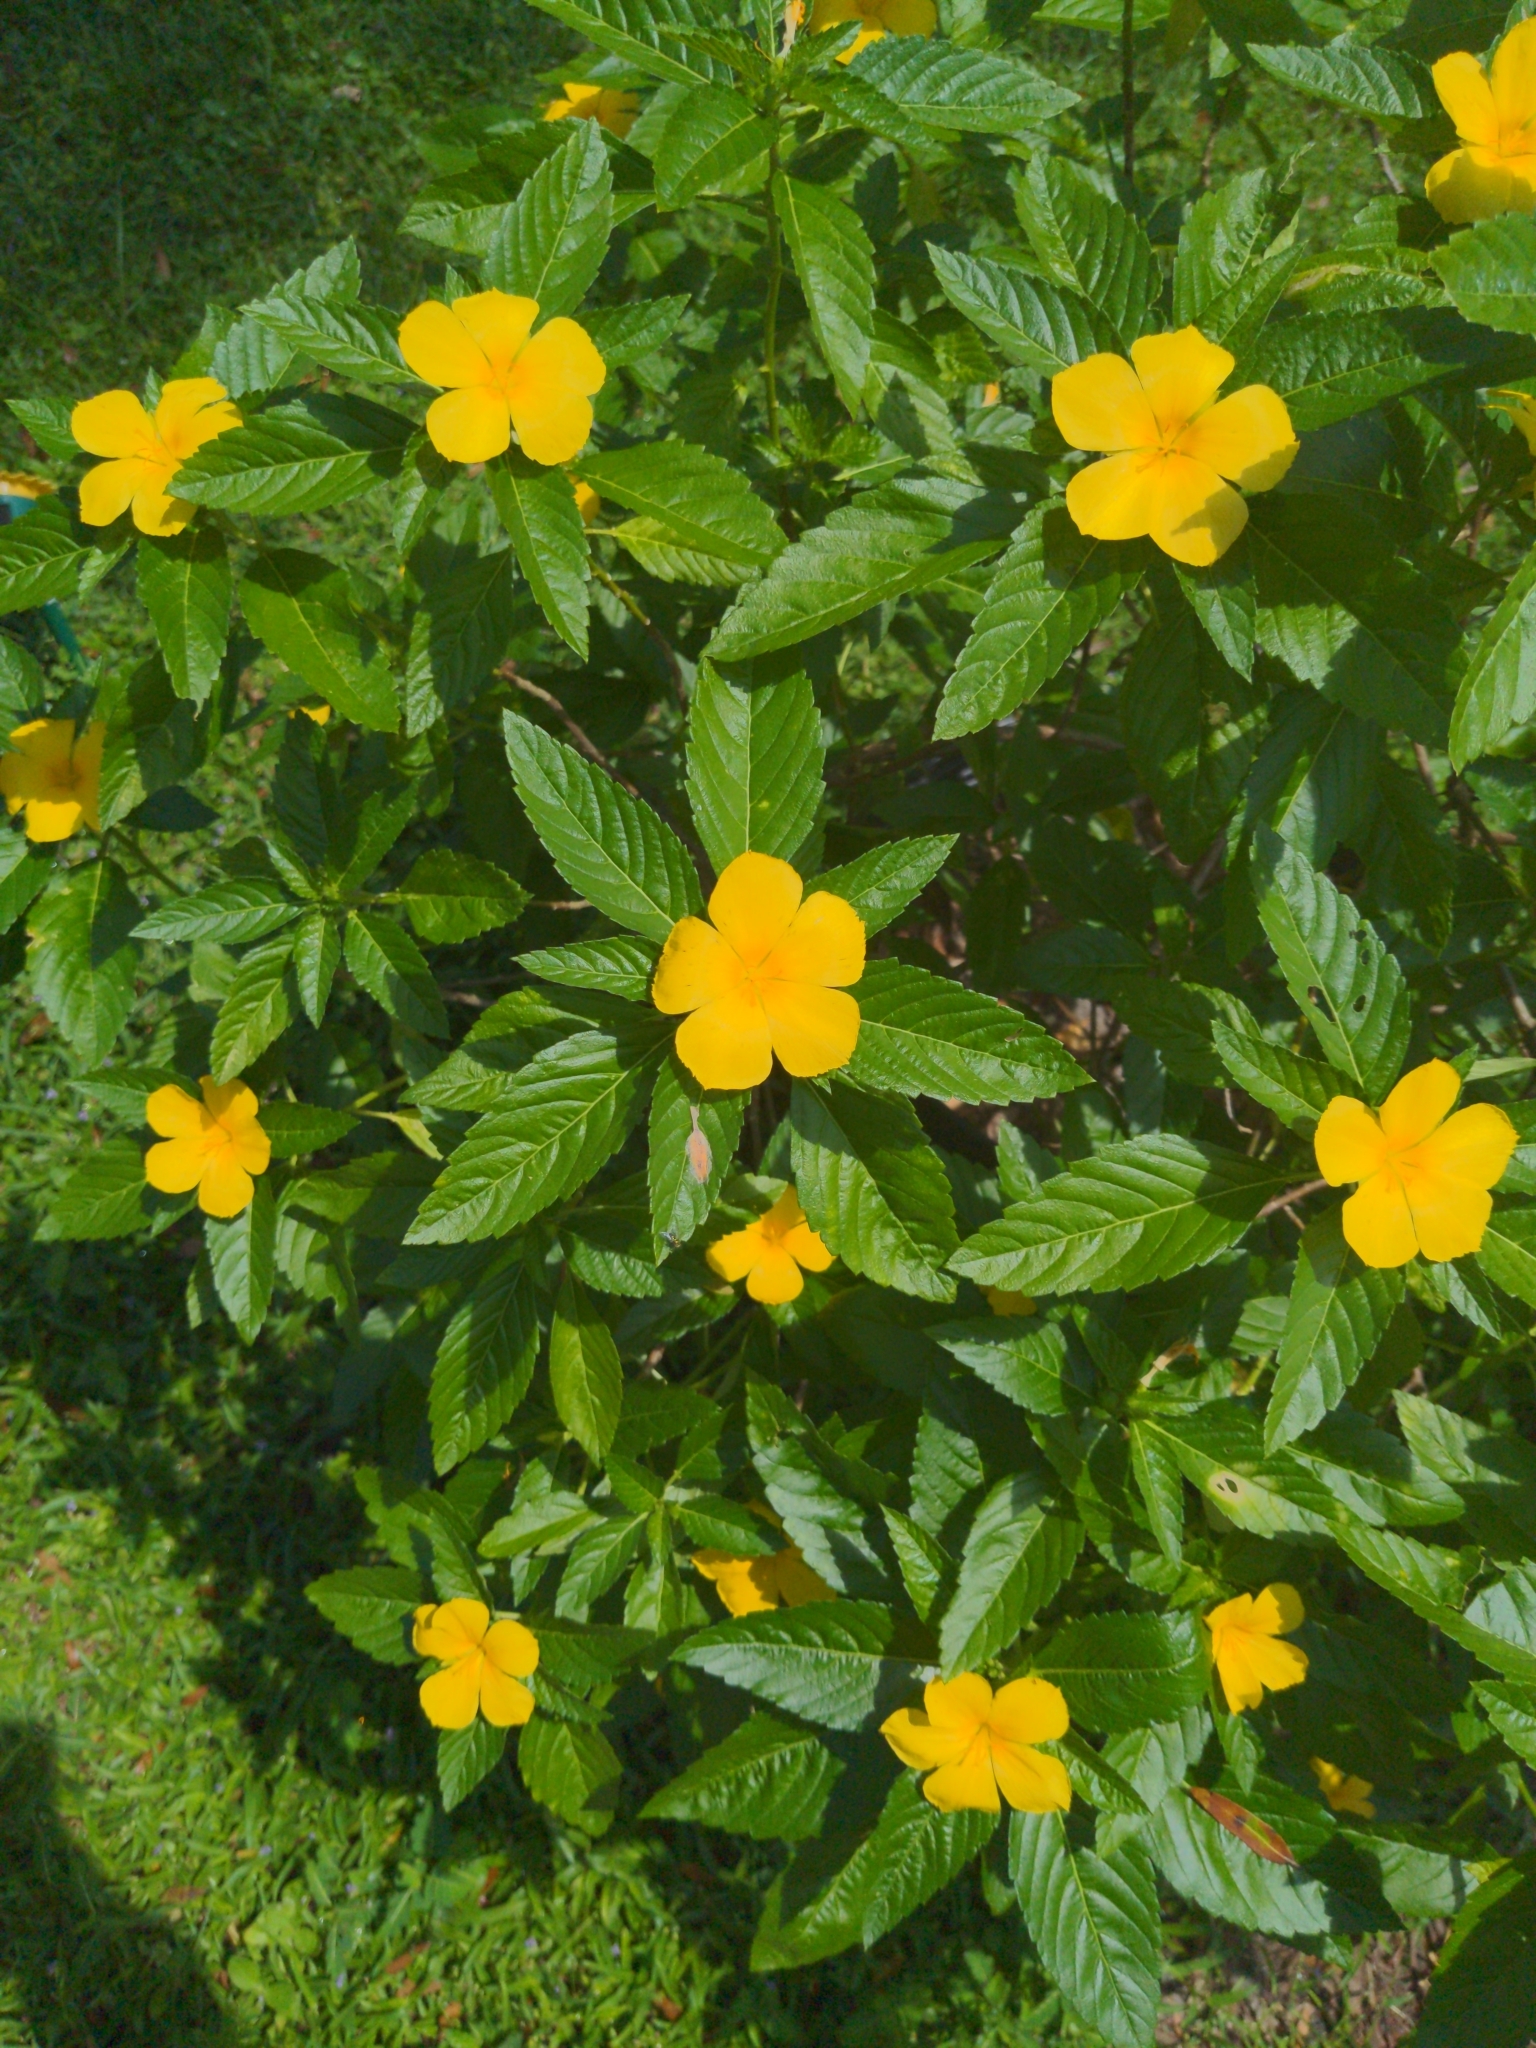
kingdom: Plantae
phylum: Tracheophyta
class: Magnoliopsida
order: Malpighiales
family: Turneraceae
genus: Turnera
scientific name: Turnera ulmifolia
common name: Ramgoat dashalong
